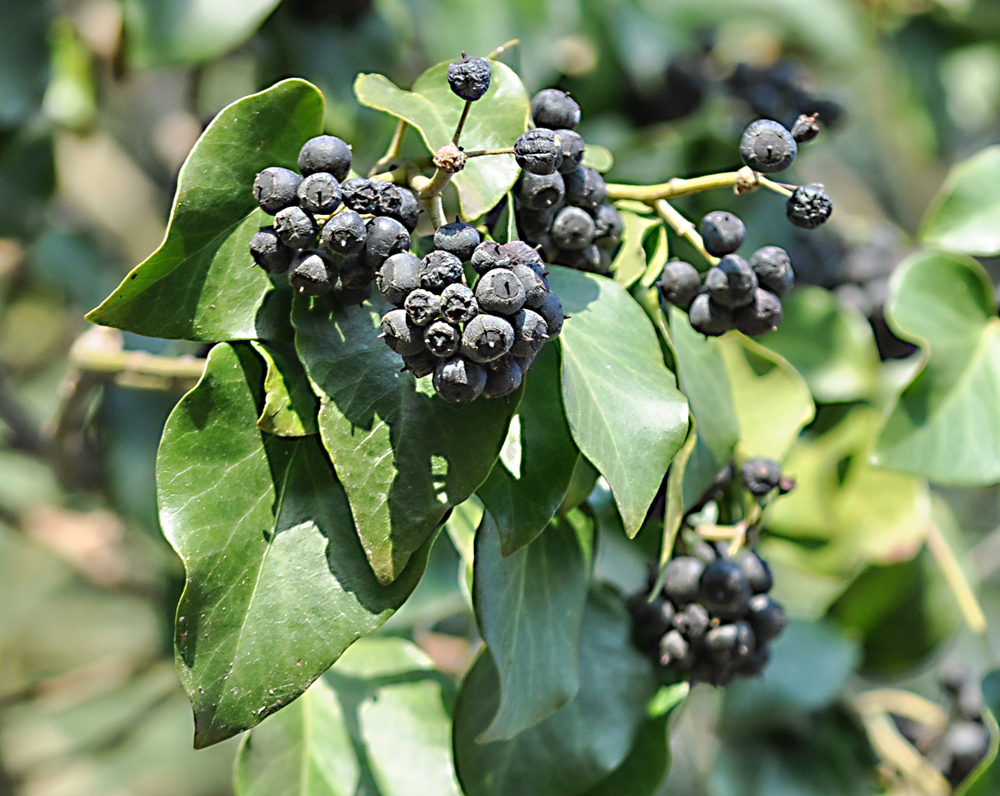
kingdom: Plantae
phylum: Tracheophyta
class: Magnoliopsida
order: Apiales
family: Araliaceae
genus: Hedera
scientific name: Hedera helix
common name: Ivy
